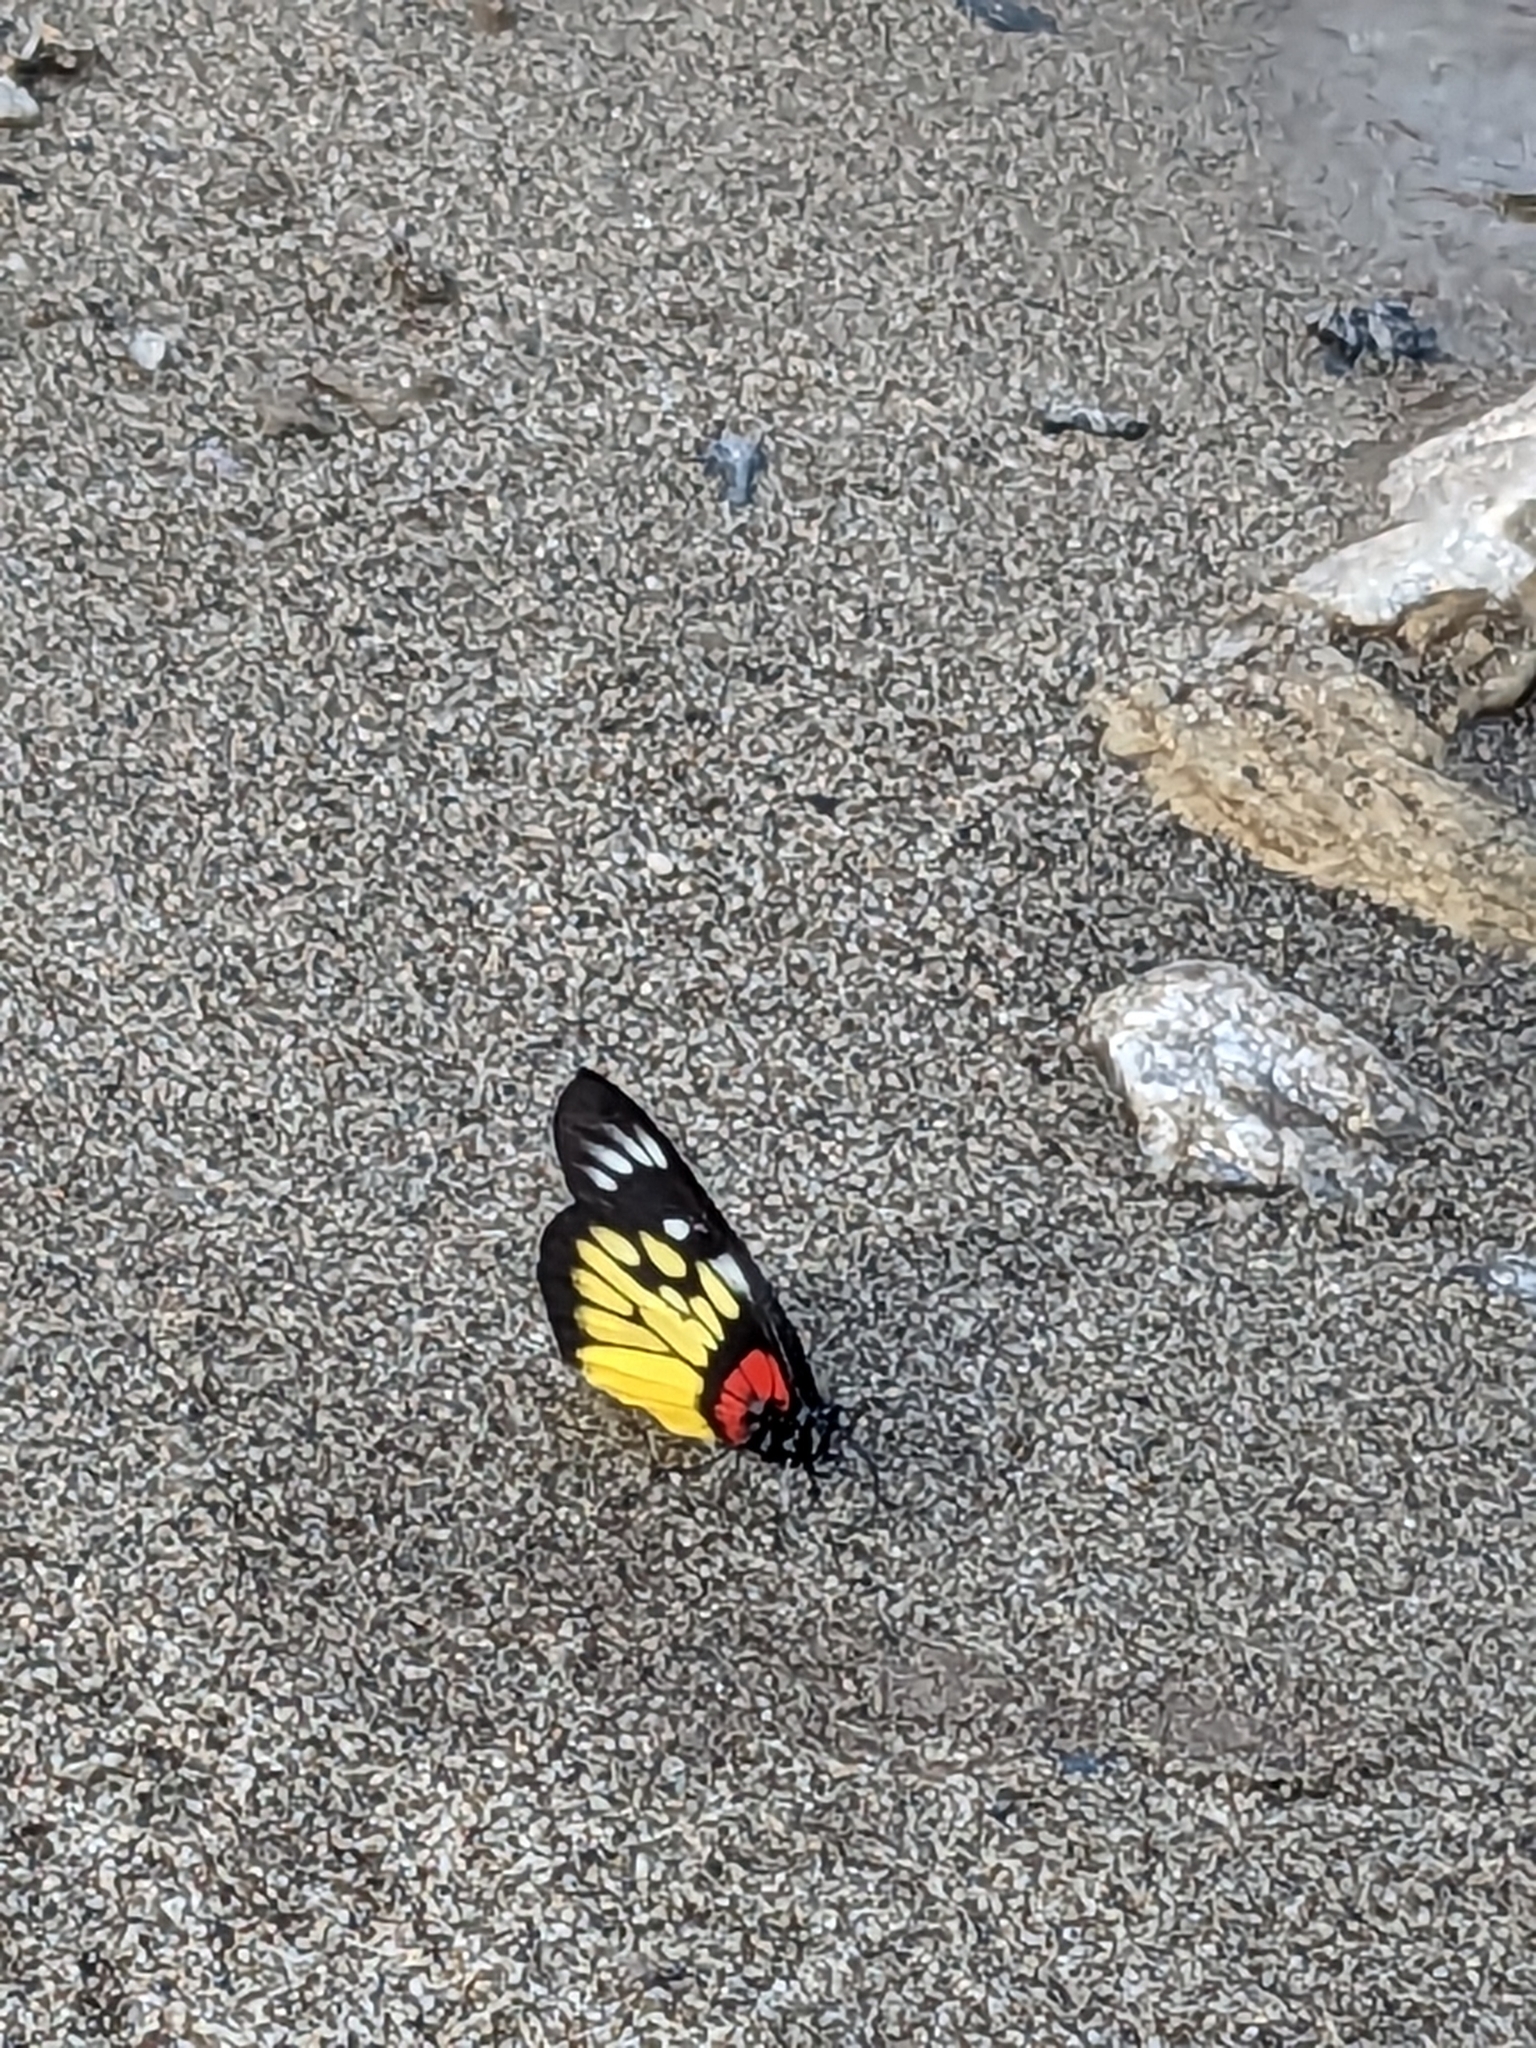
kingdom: Animalia
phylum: Arthropoda
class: Insecta
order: Lepidoptera
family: Pieridae
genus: Delias
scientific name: Delias pasithoe
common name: Red-base jezebel
